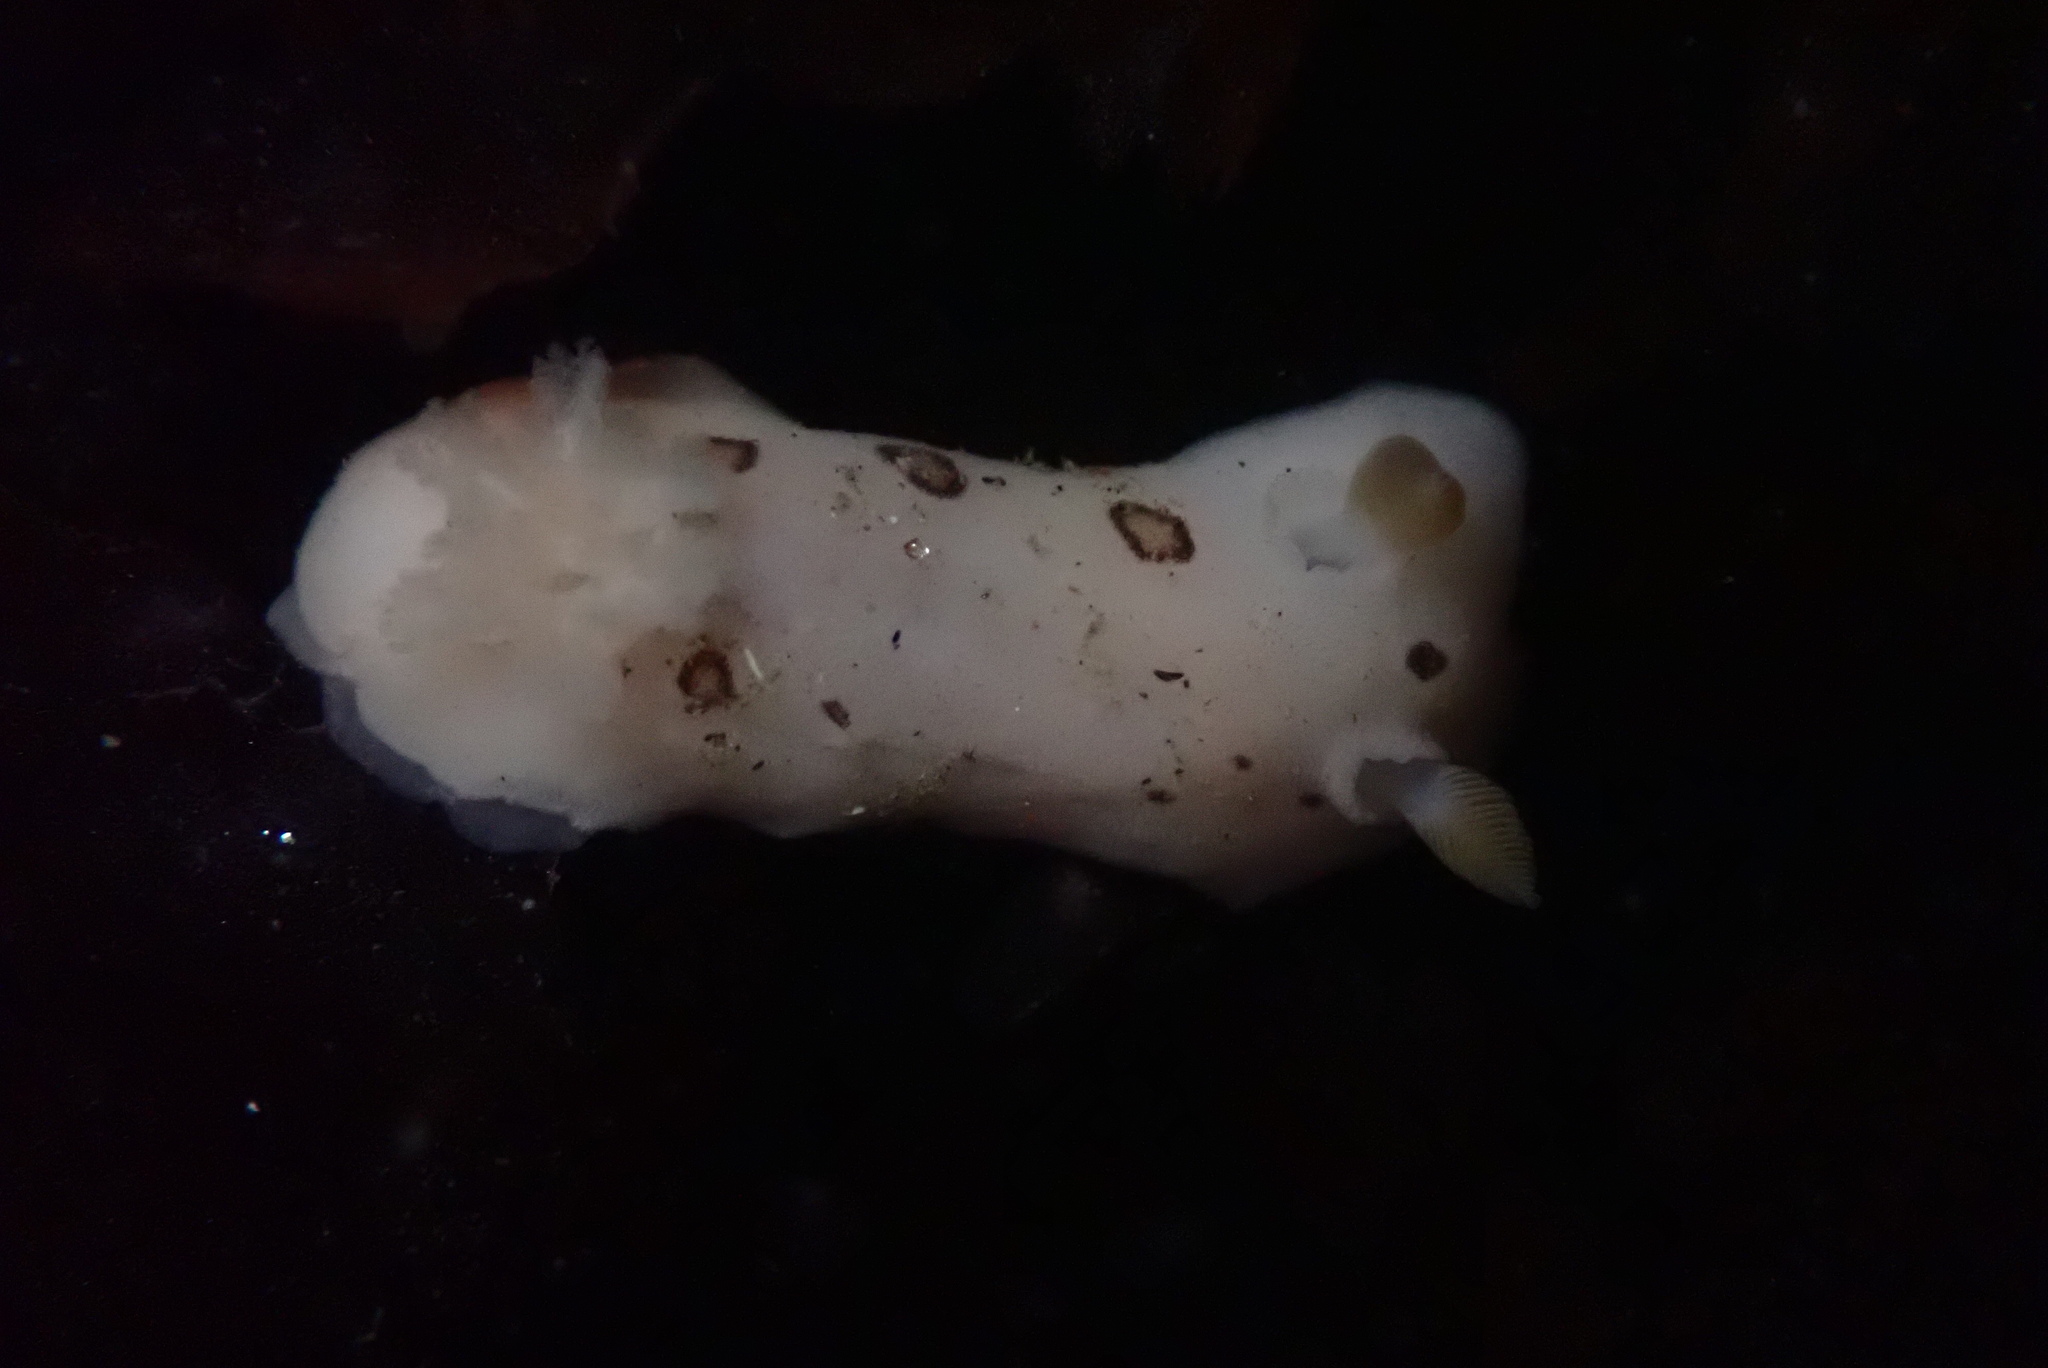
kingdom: Animalia
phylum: Mollusca
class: Gastropoda
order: Nudibranchia
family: Discodorididae
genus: Diaulula
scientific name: Diaulula sandiegensis
